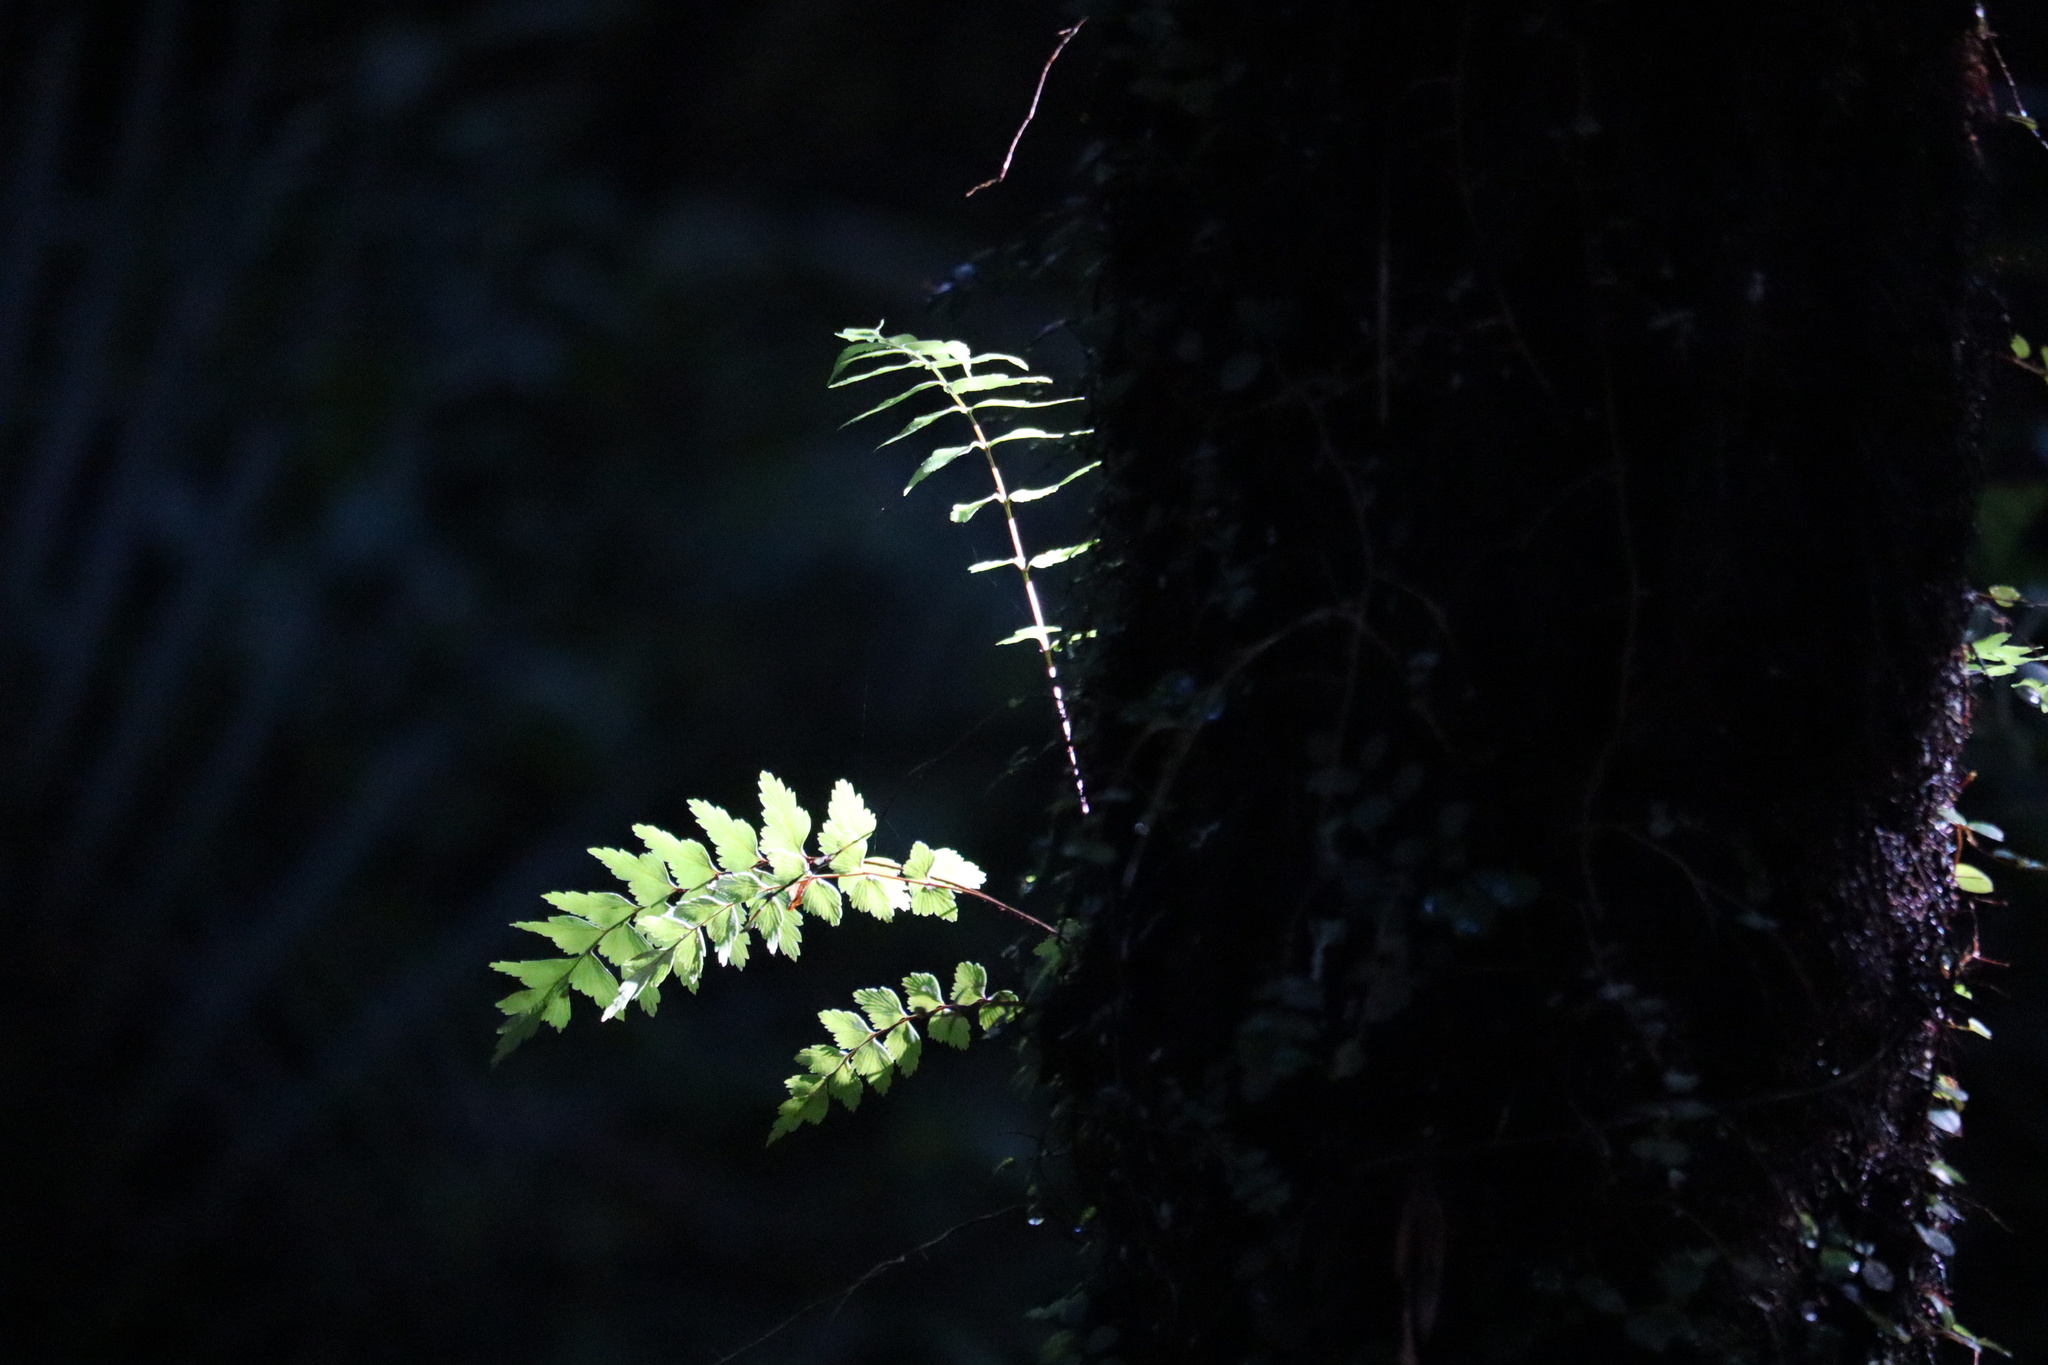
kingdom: Plantae
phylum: Tracheophyta
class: Polypodiopsida
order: Polypodiales
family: Aspleniaceae
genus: Asplenium
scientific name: Asplenium polyodon
